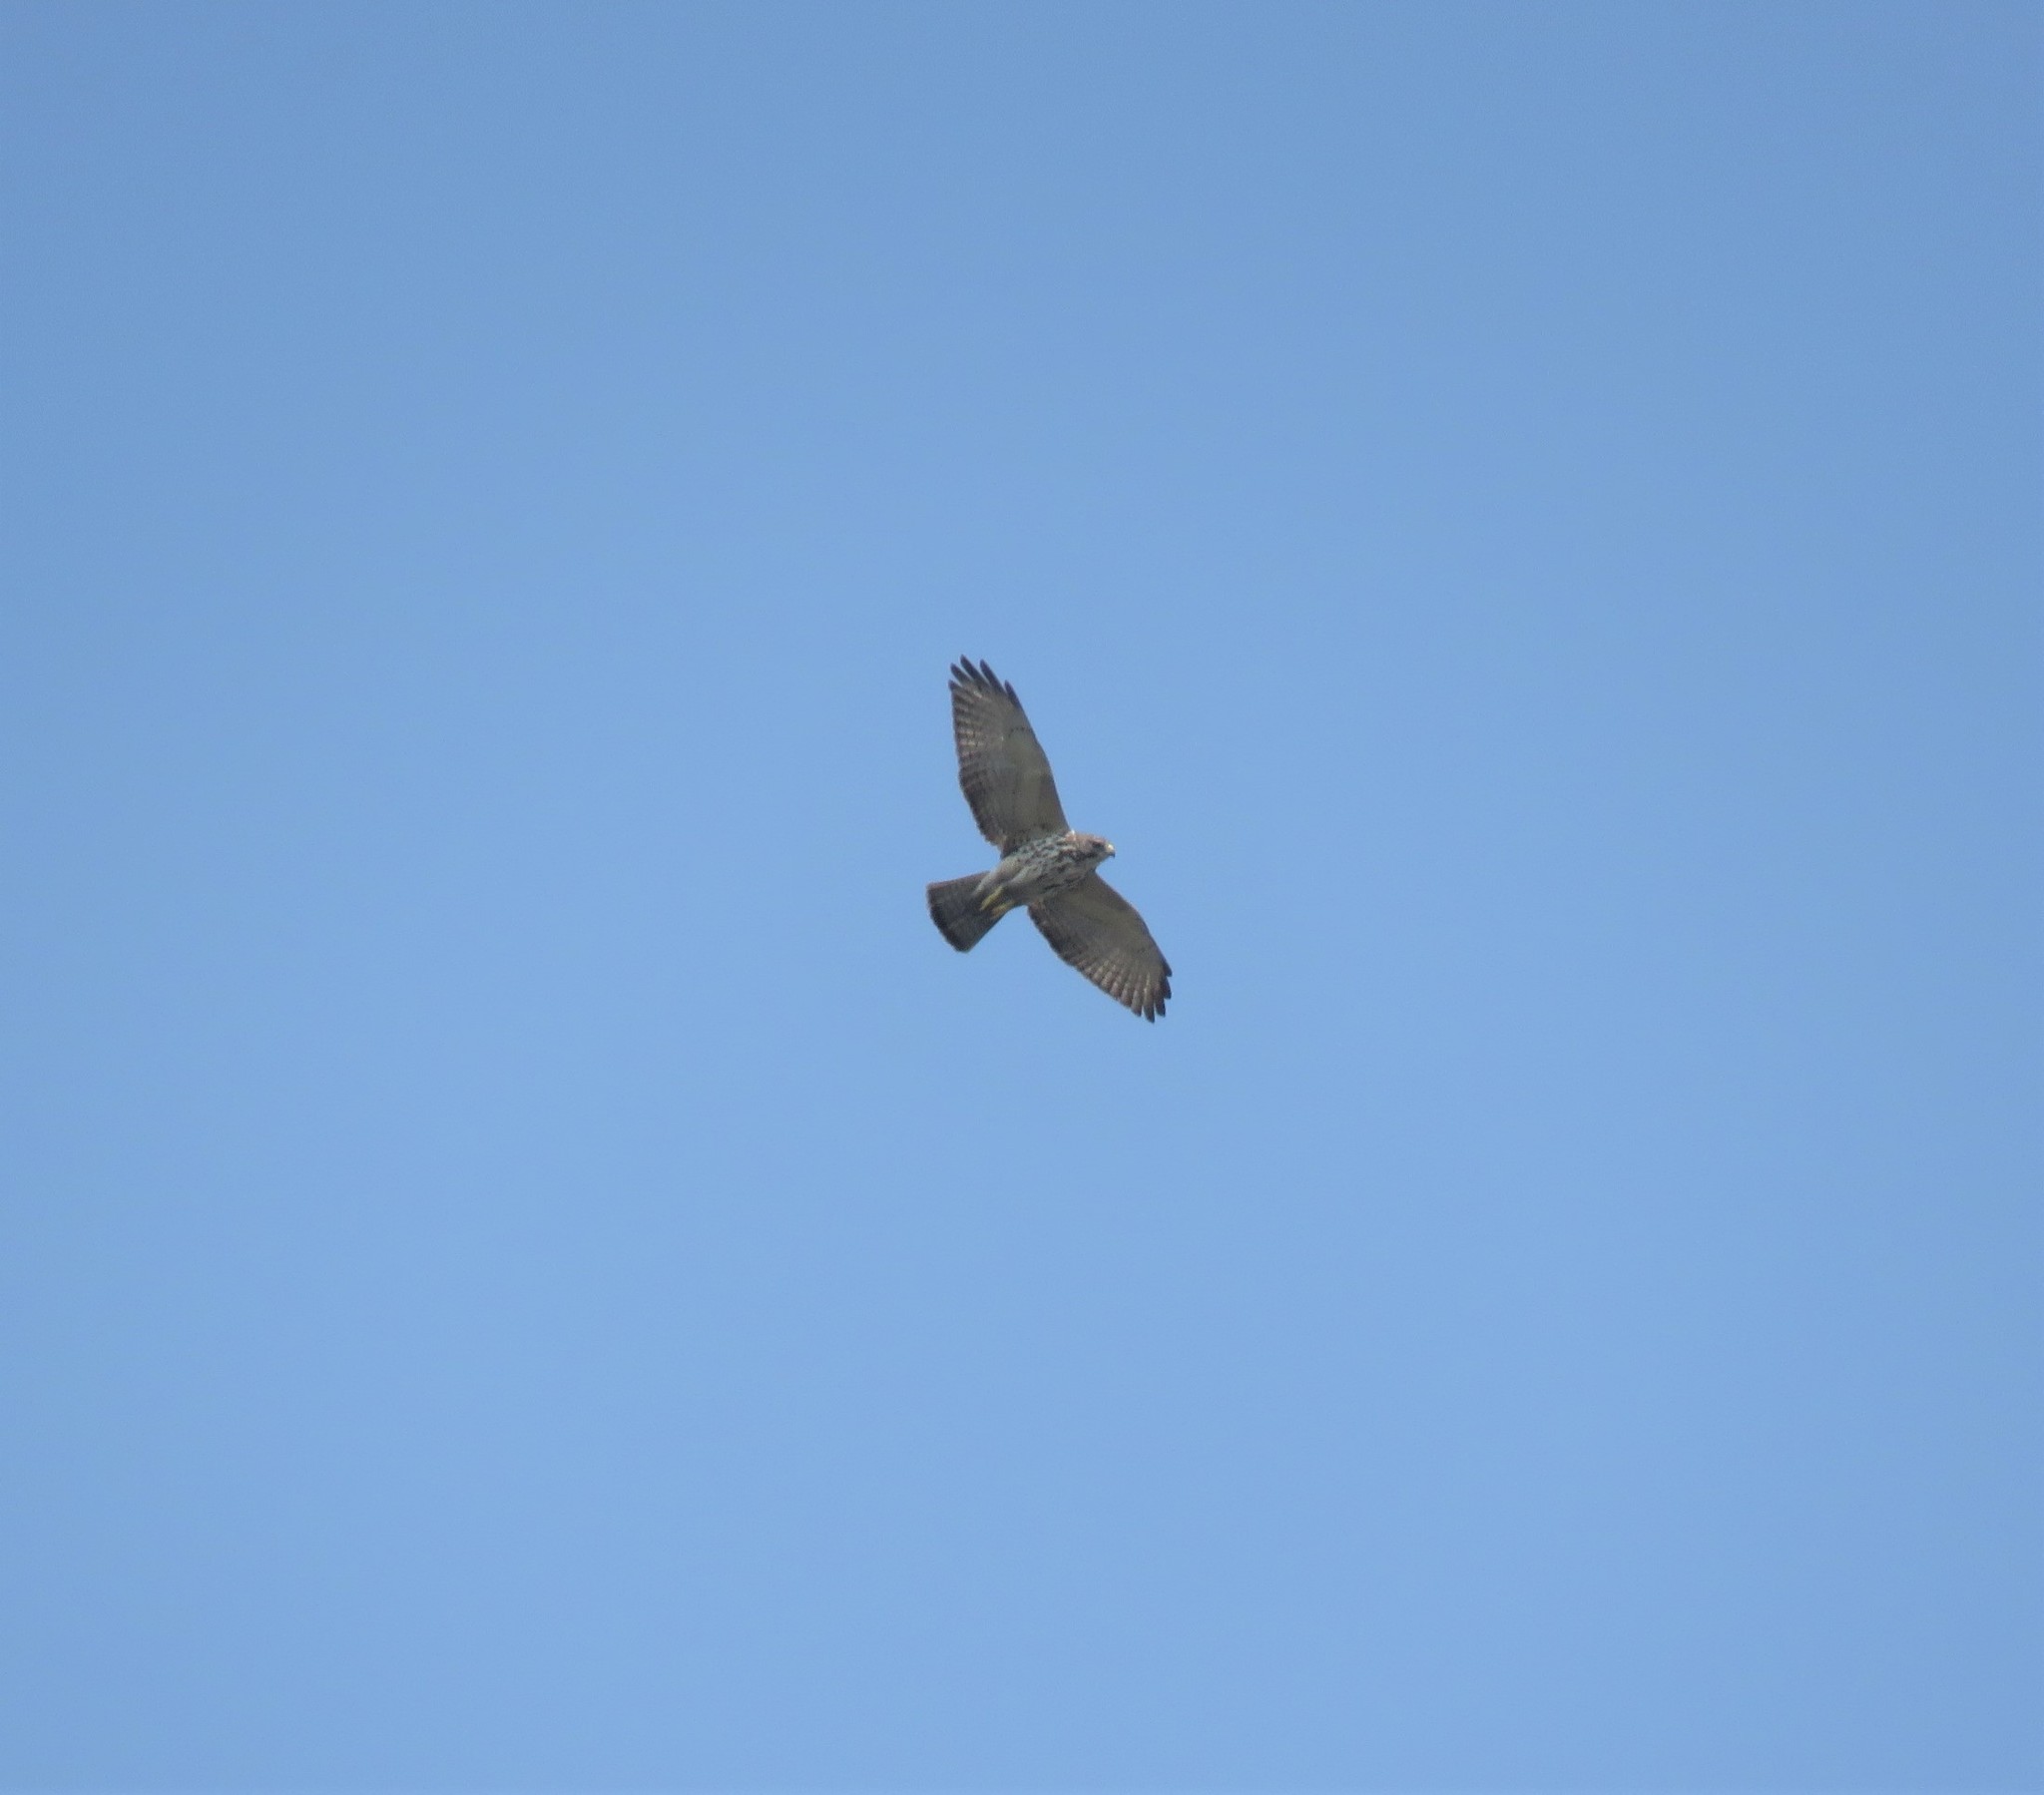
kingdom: Animalia
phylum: Chordata
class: Aves
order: Accipitriformes
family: Accipitridae
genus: Buteo
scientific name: Buteo platypterus
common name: Broad-winged hawk
